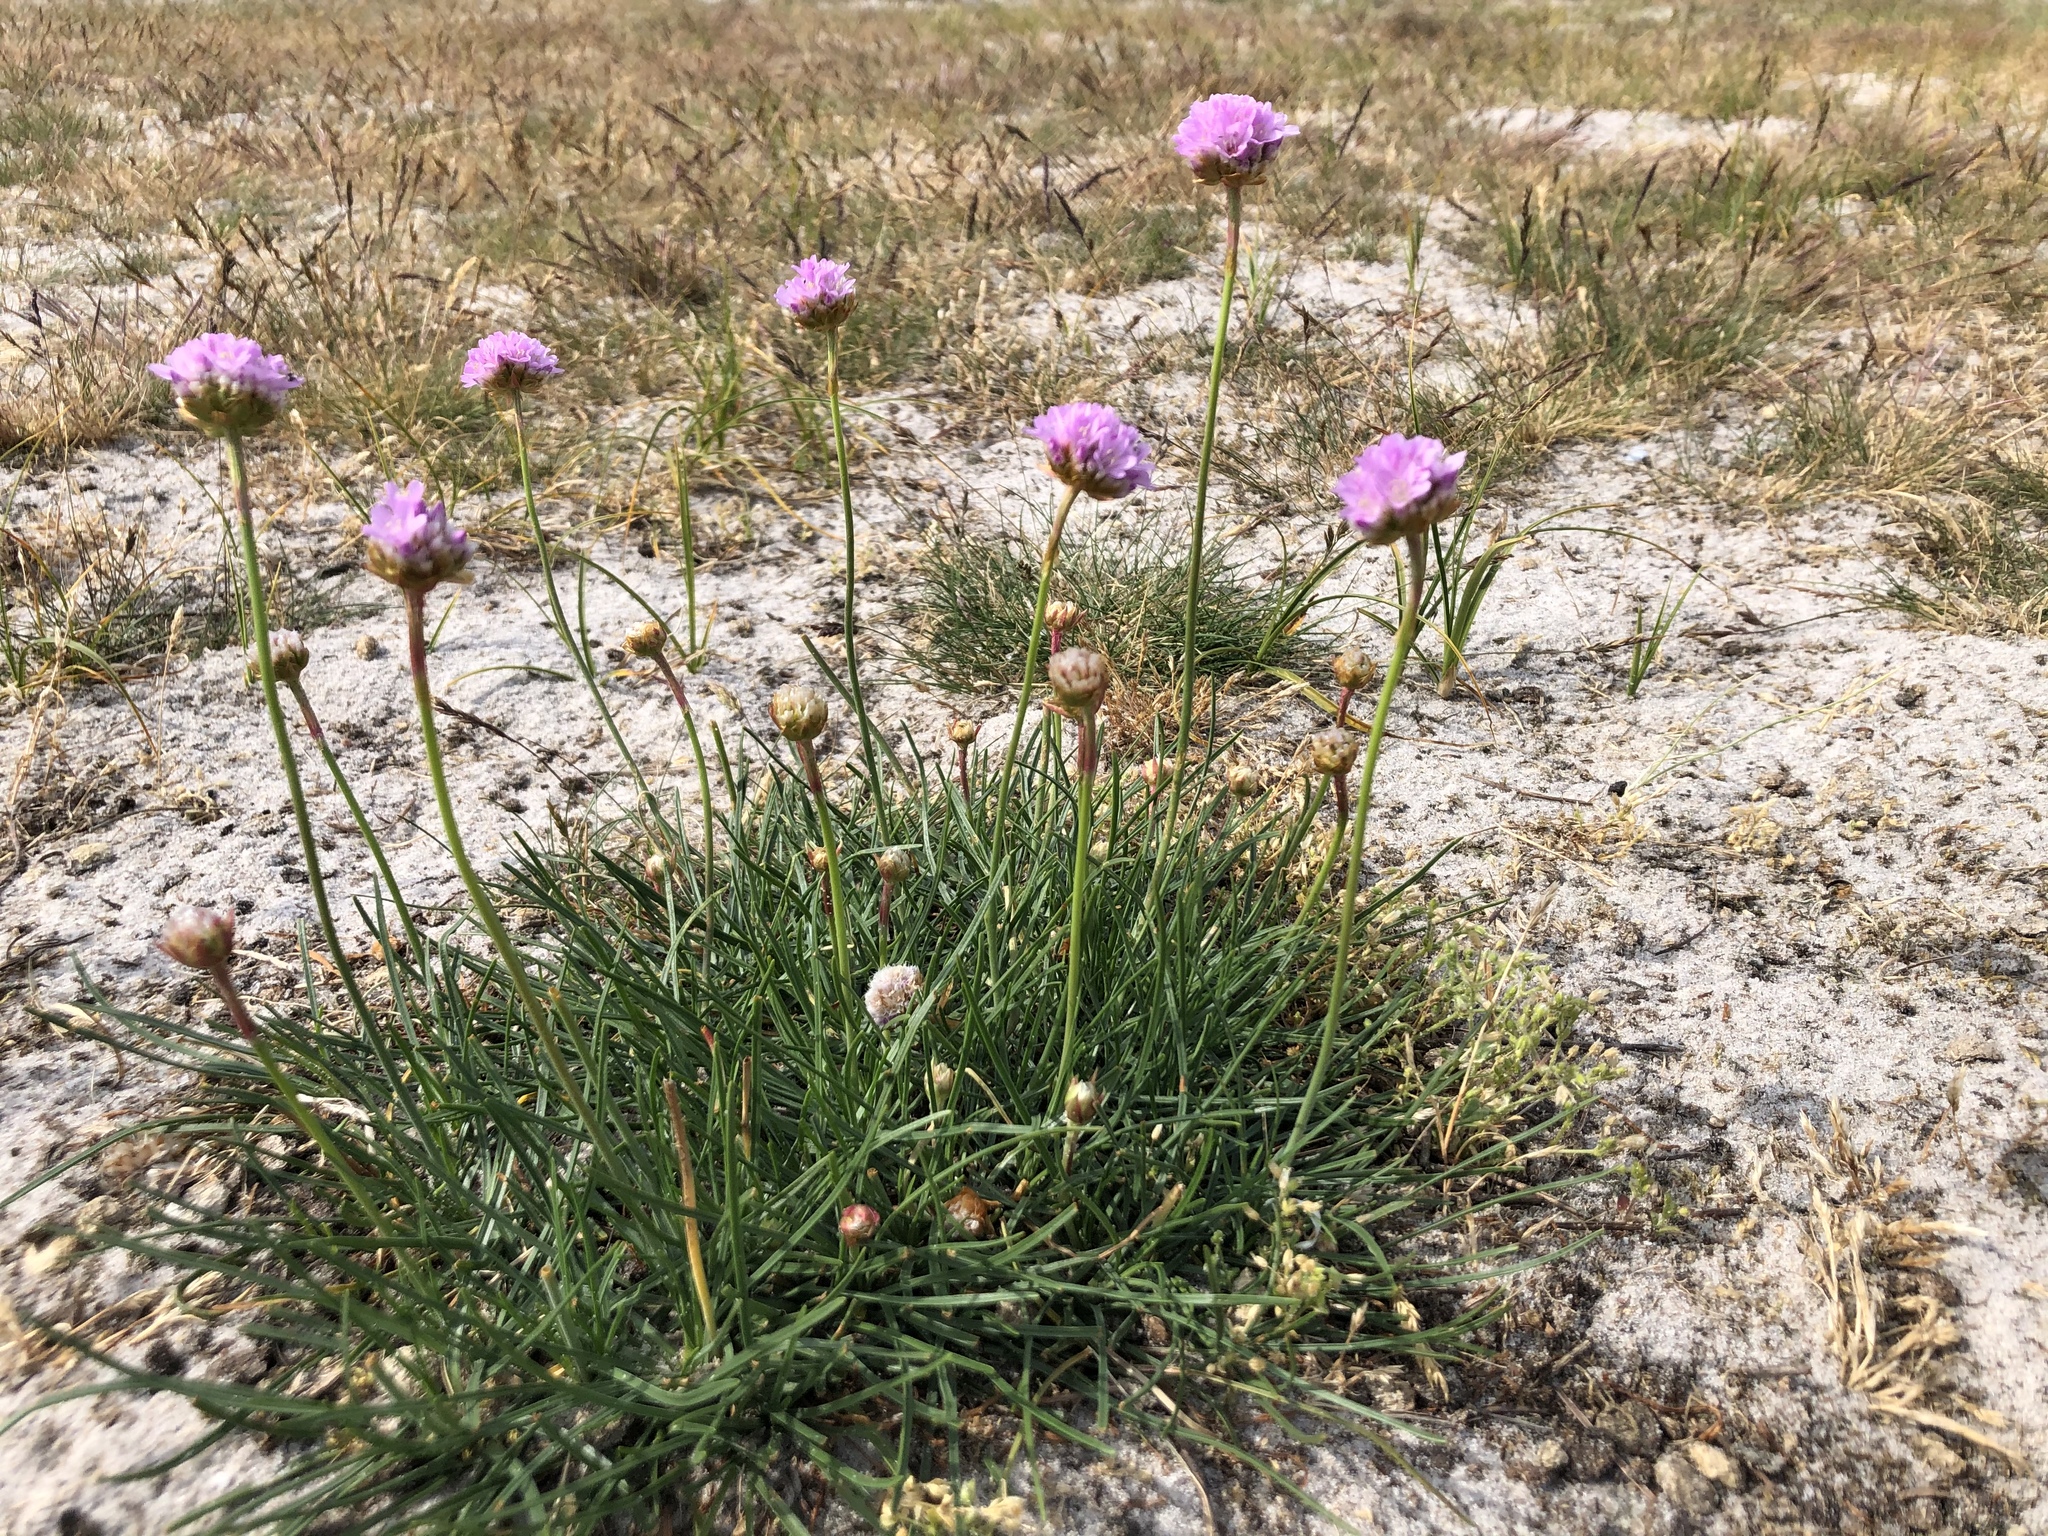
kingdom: Plantae
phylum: Tracheophyta
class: Magnoliopsida
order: Caryophyllales
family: Plumbaginaceae
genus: Armeria
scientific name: Armeria maritima
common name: Thrift
